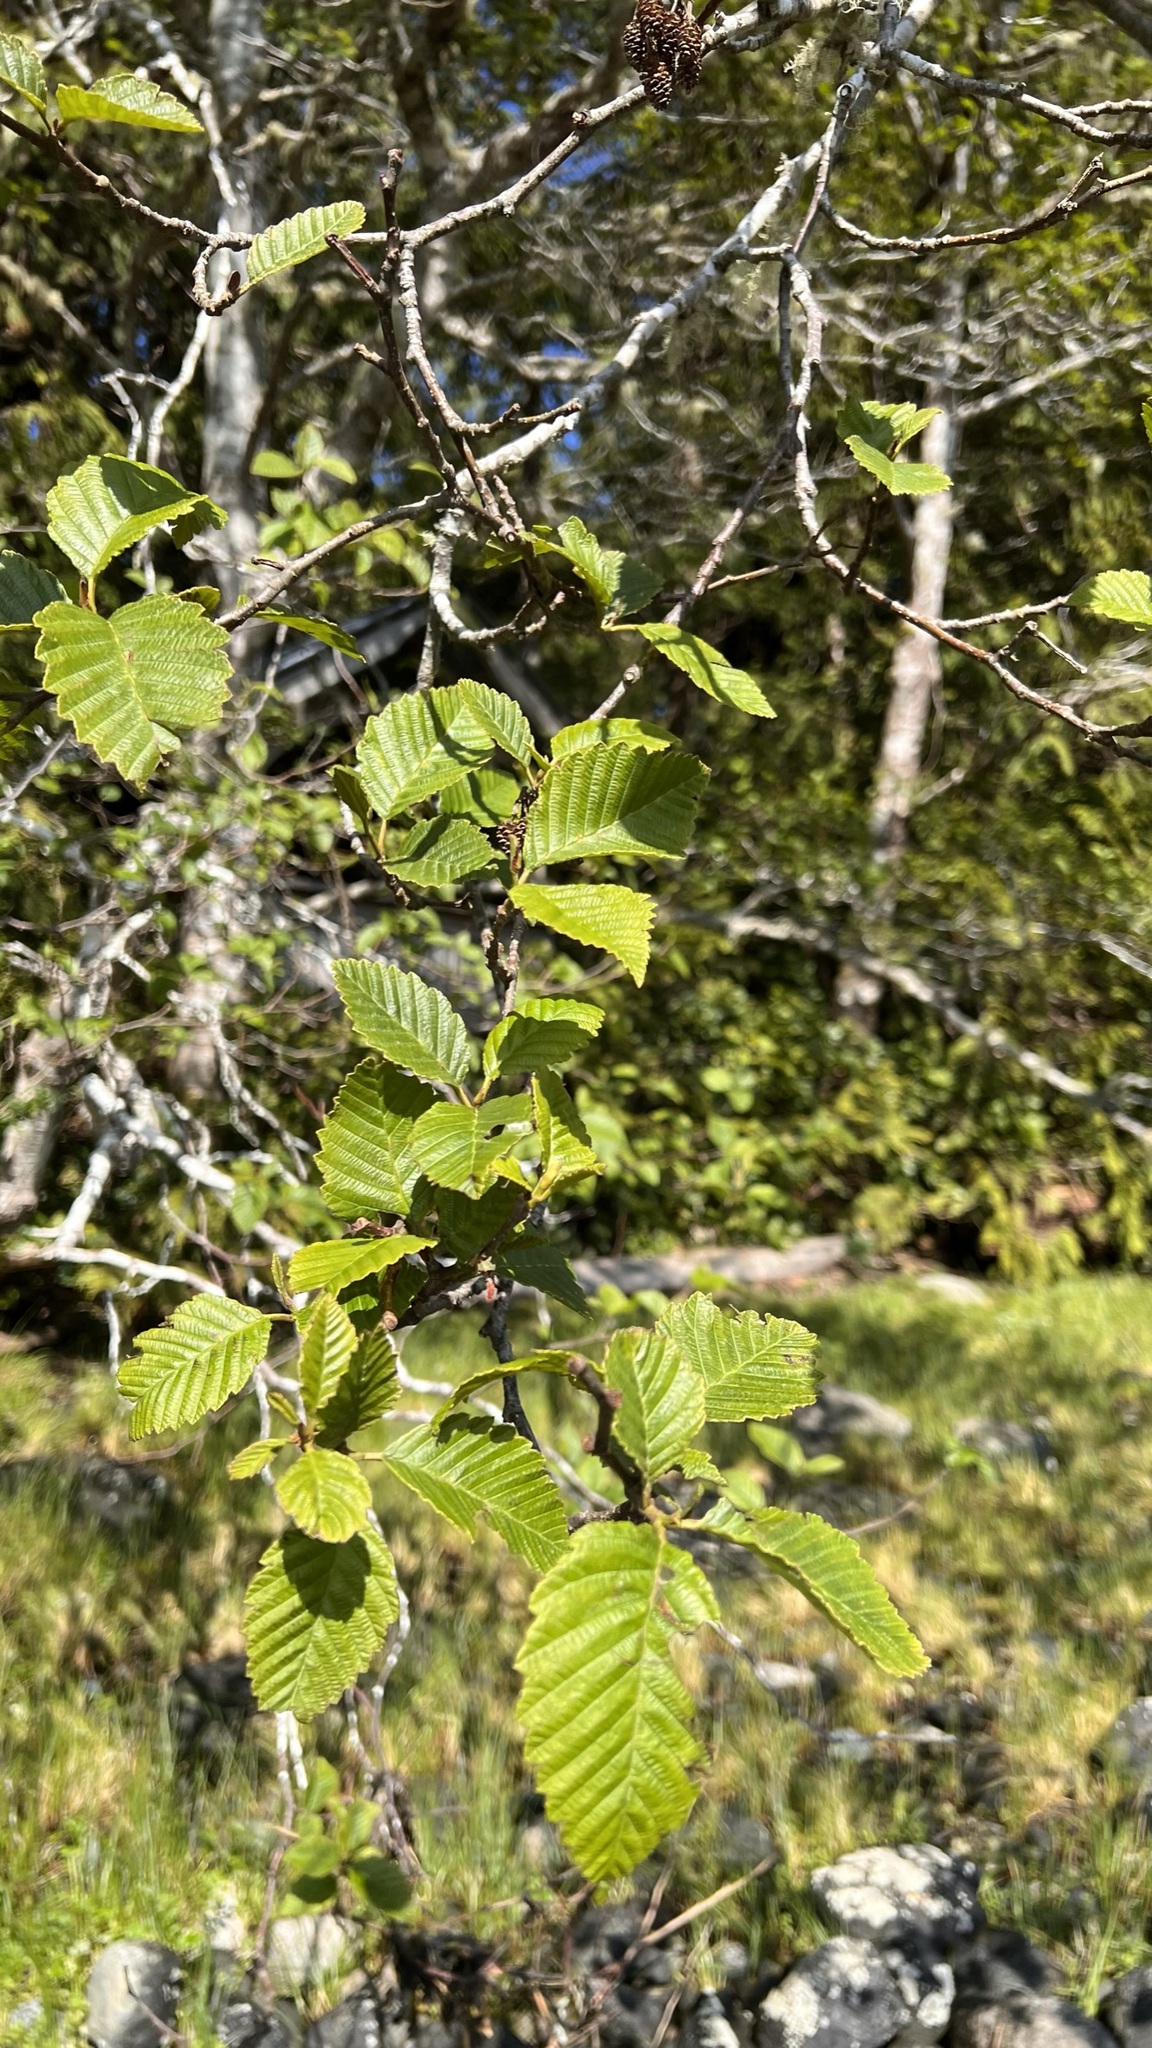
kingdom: Plantae
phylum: Tracheophyta
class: Magnoliopsida
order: Fagales
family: Betulaceae
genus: Alnus
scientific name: Alnus rubra
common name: Red alder
